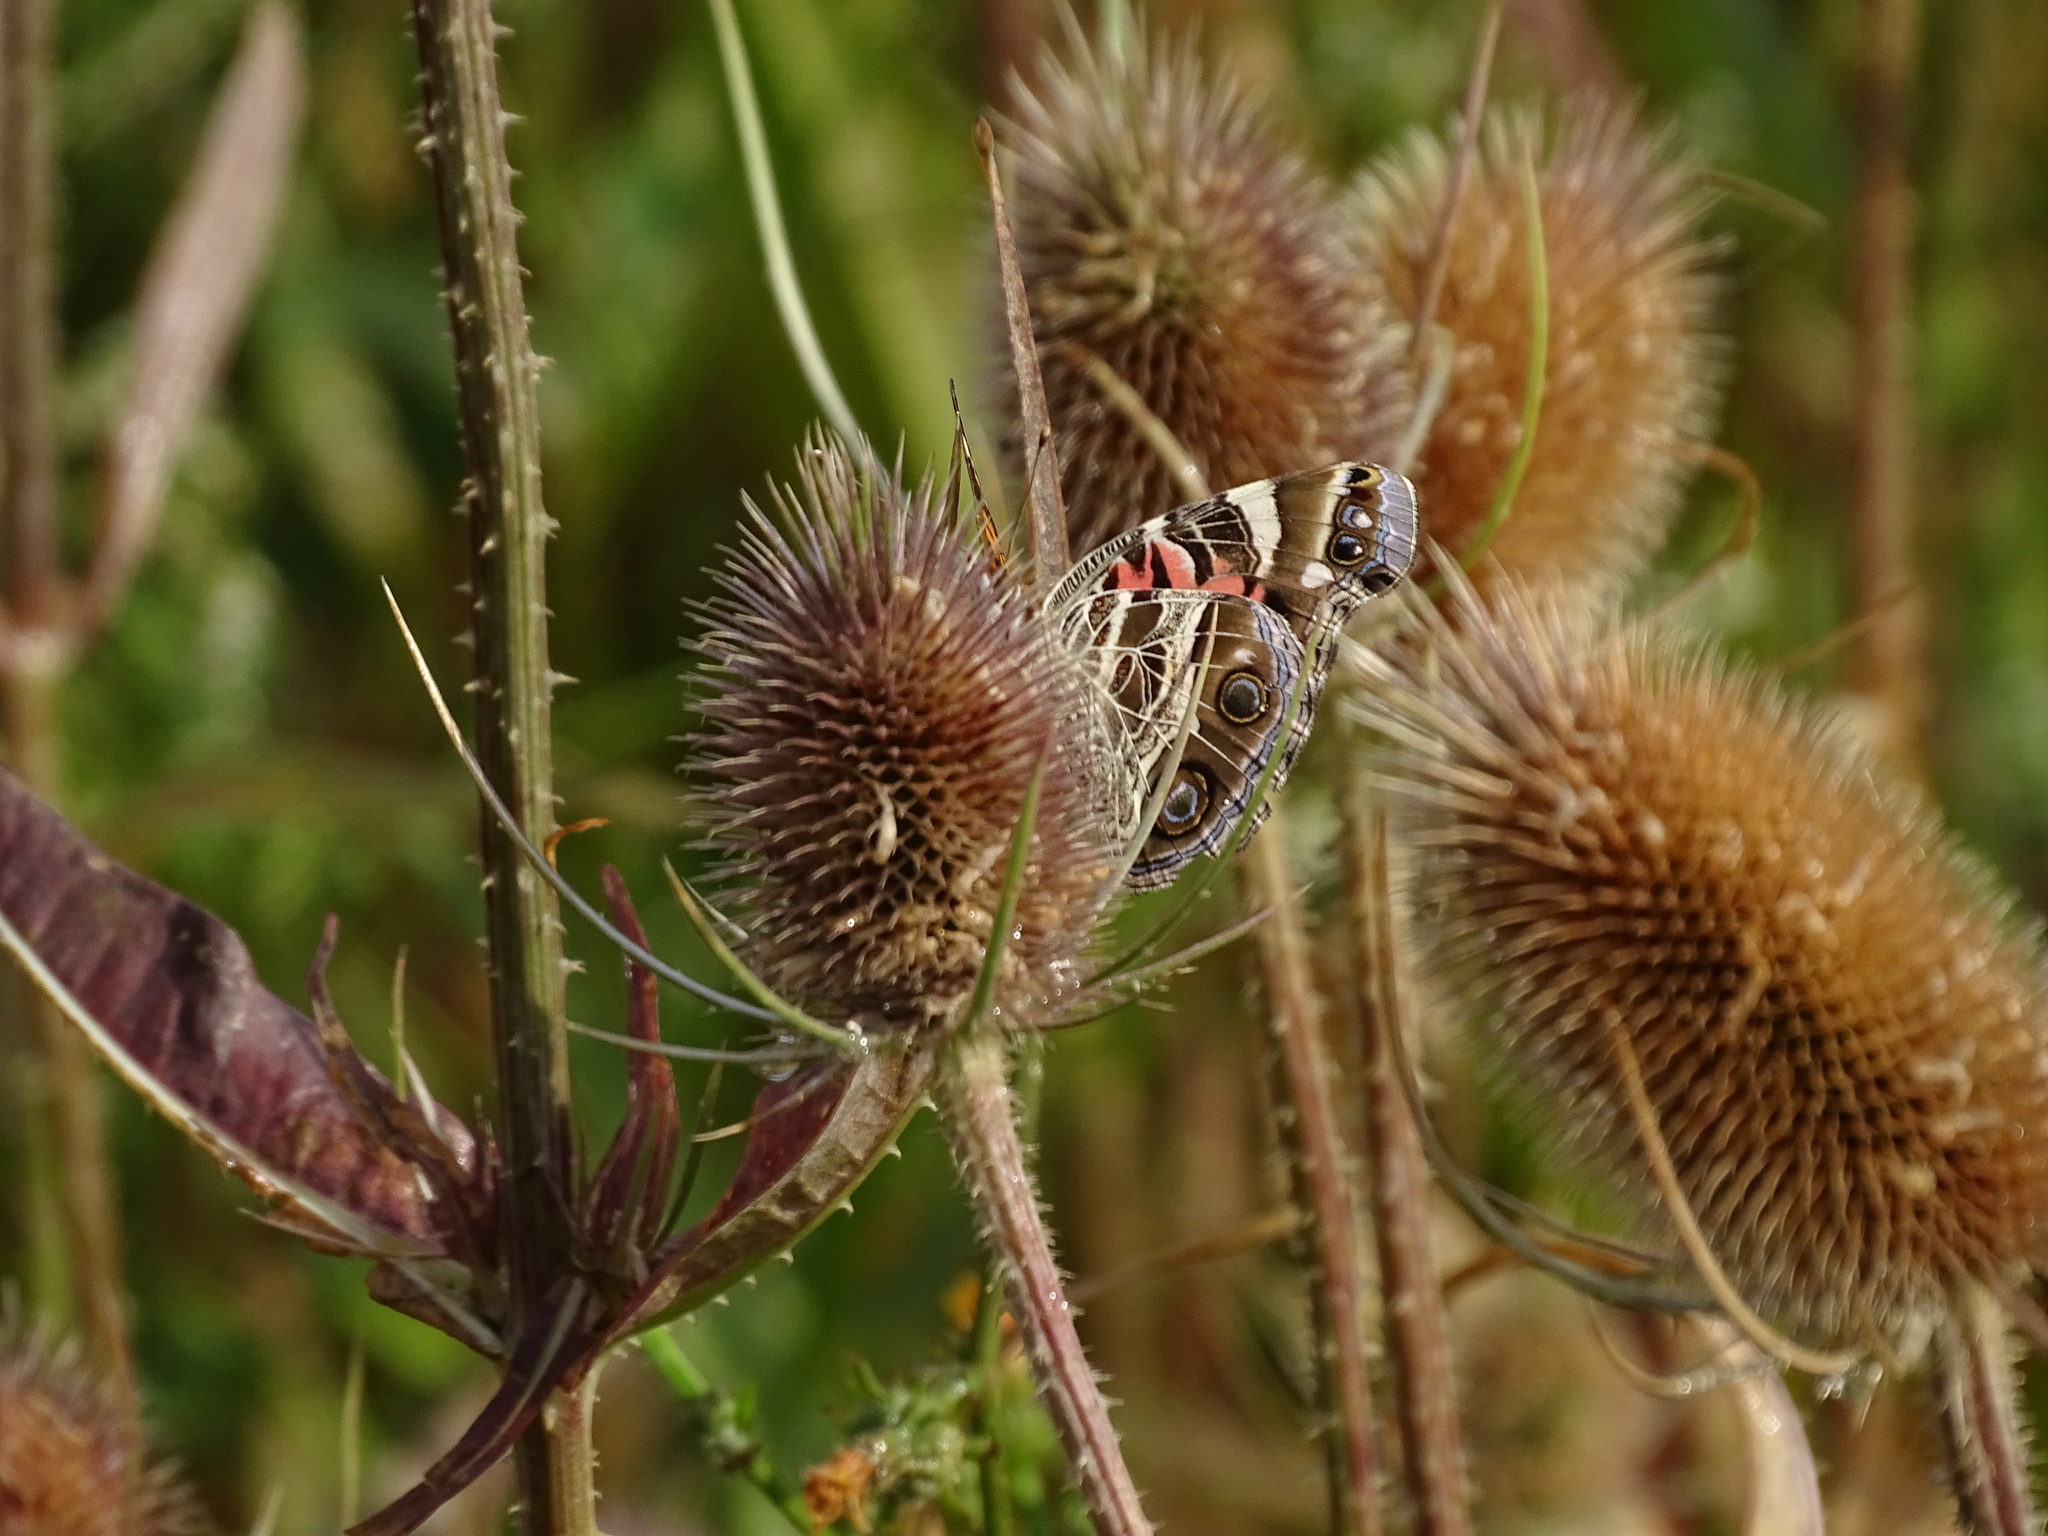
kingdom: Animalia
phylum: Arthropoda
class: Insecta
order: Lepidoptera
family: Nymphalidae
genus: Vanessa
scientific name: Vanessa virginiensis
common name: American lady
